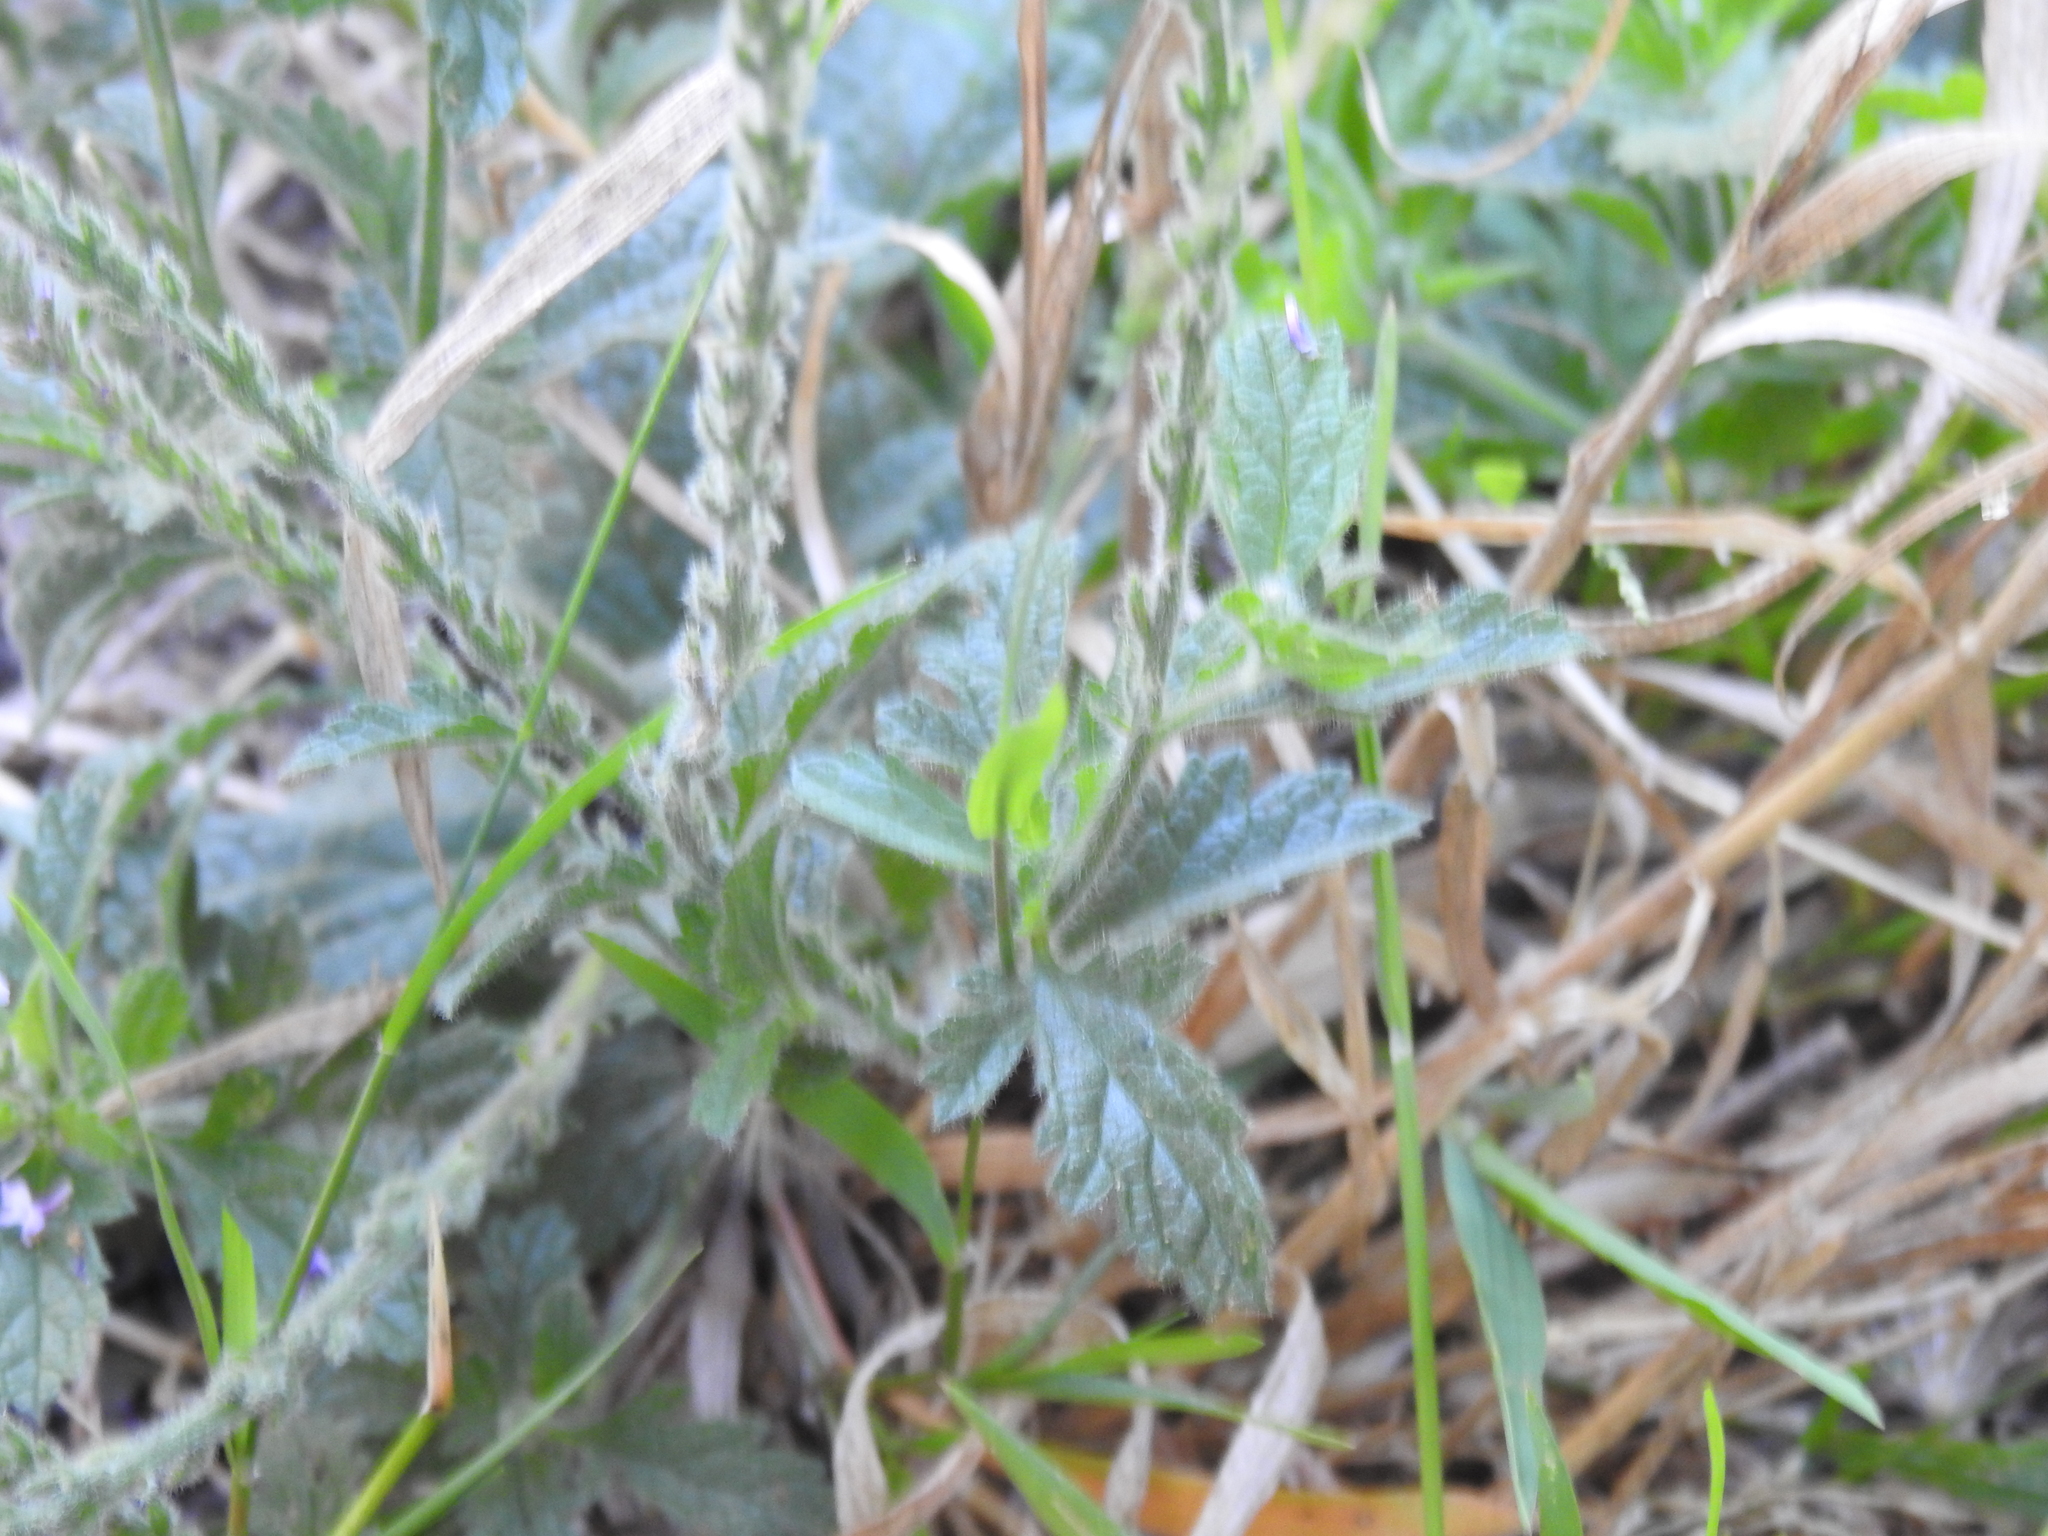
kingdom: Plantae
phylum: Tracheophyta
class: Magnoliopsida
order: Lamiales
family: Verbenaceae
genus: Verbena
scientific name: Verbena lasiostachys
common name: Vervain
